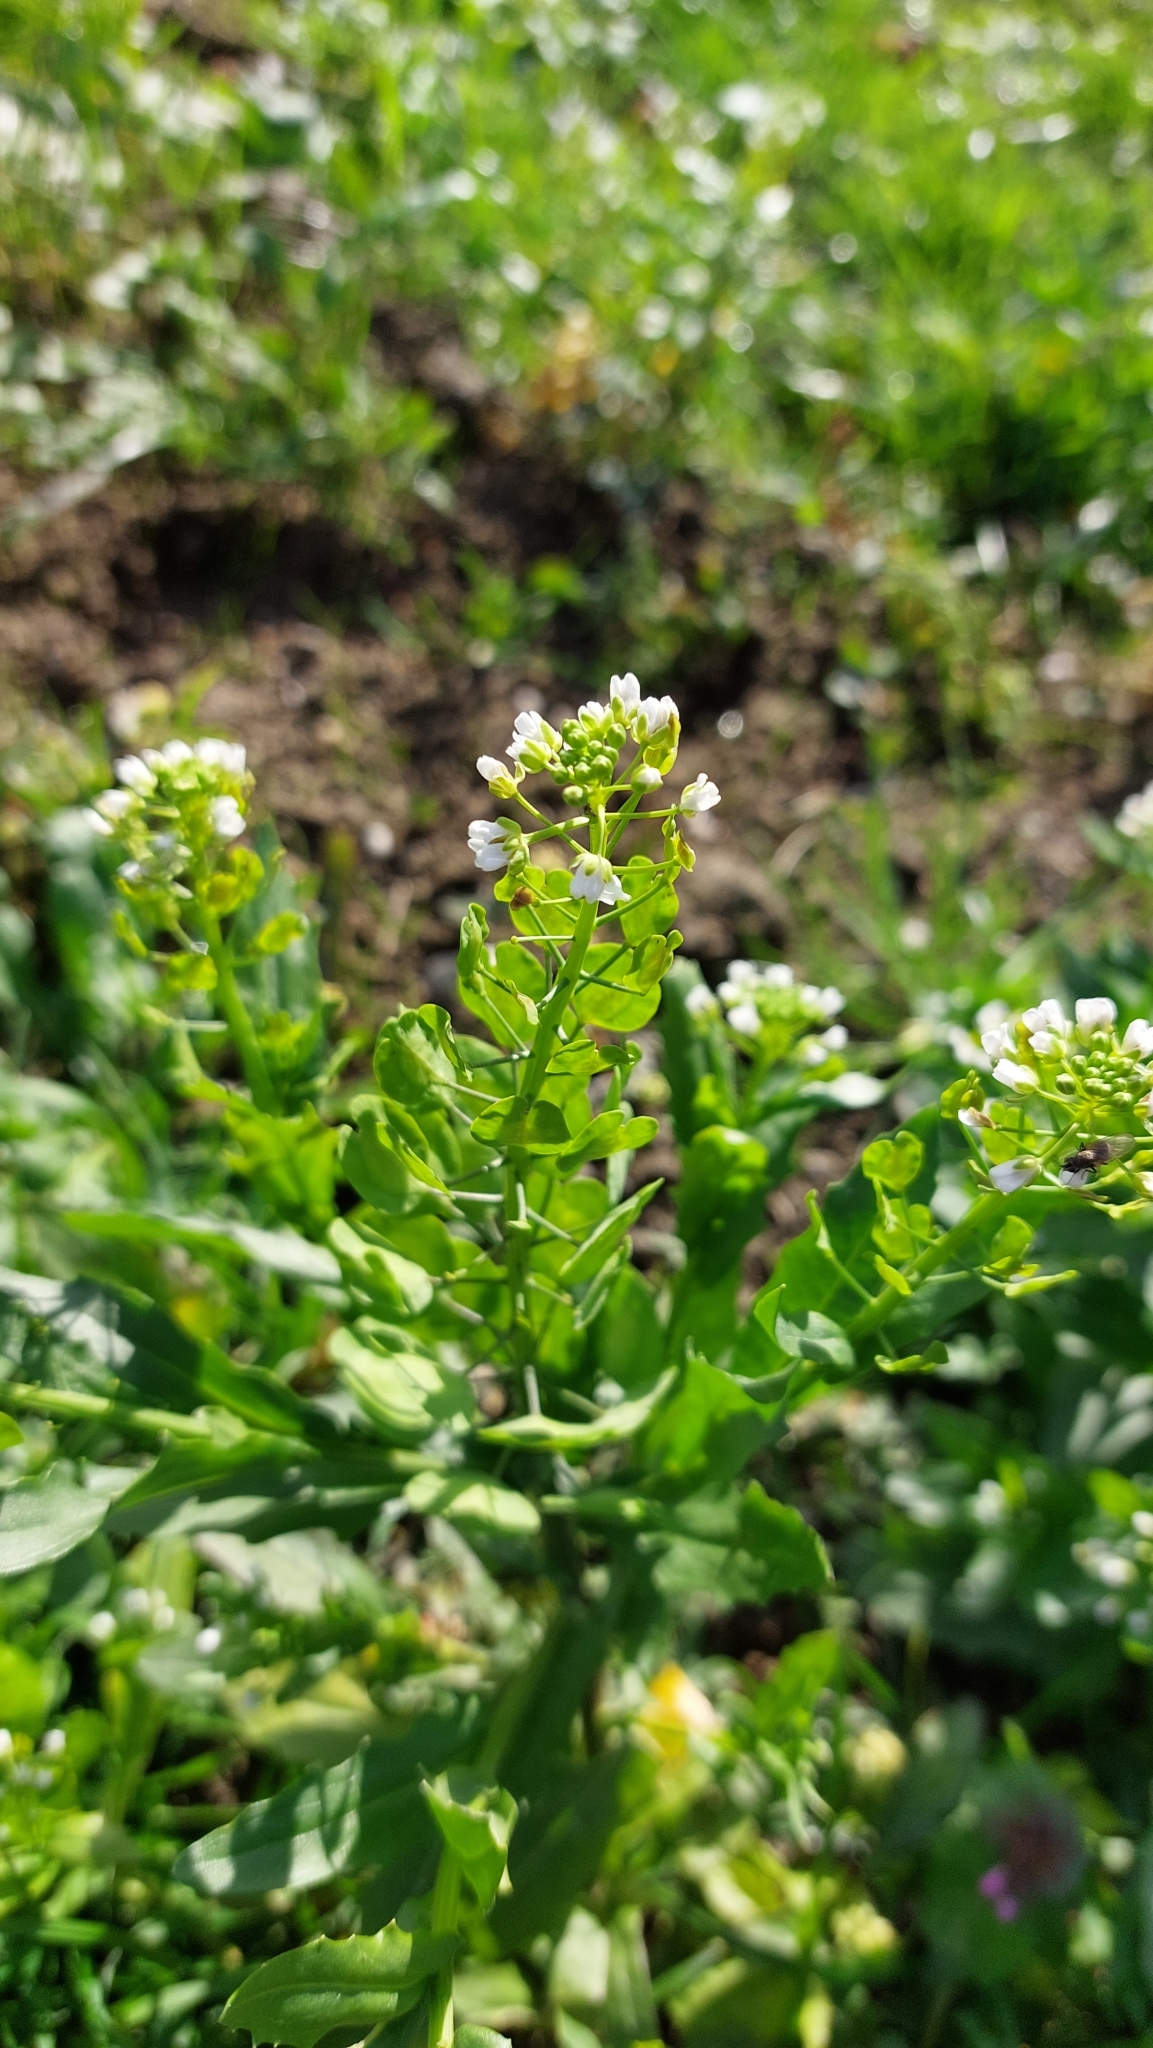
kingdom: Plantae
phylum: Tracheophyta
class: Magnoliopsida
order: Brassicales
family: Brassicaceae
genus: Thlaspi
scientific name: Thlaspi arvense
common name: Field pennycress
